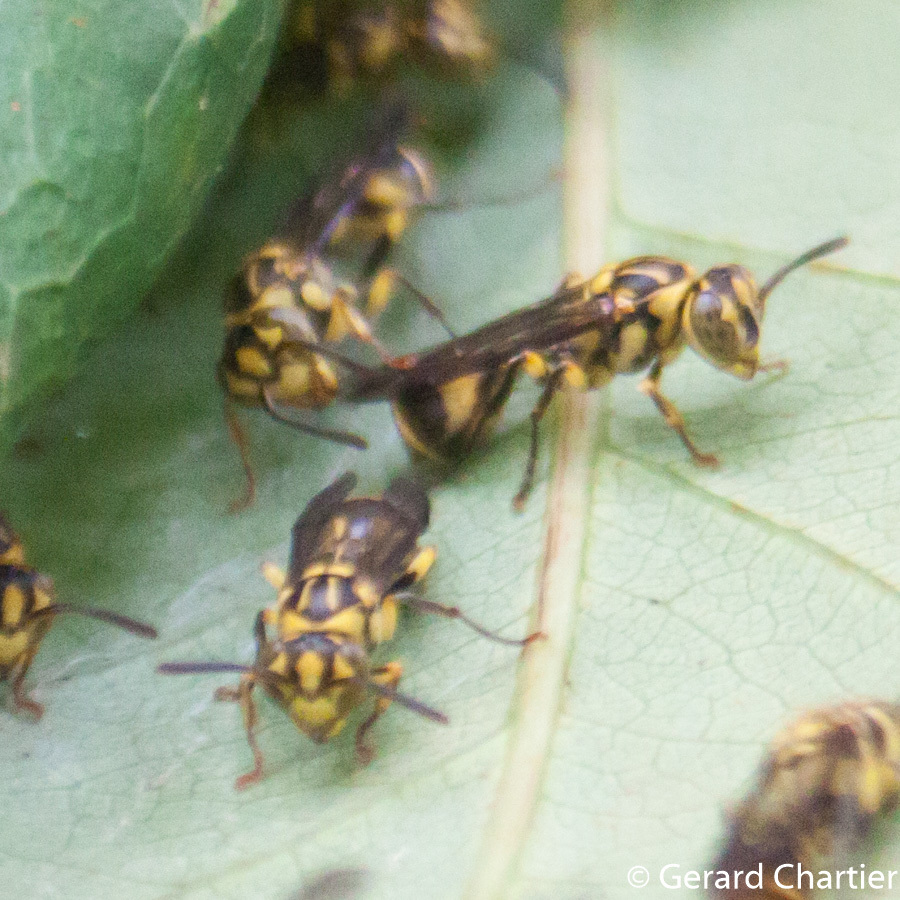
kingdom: Animalia
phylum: Arthropoda
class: Insecta
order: Hymenoptera
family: Vespidae
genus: Ropalidia
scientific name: Ropalidia ornaticeps
